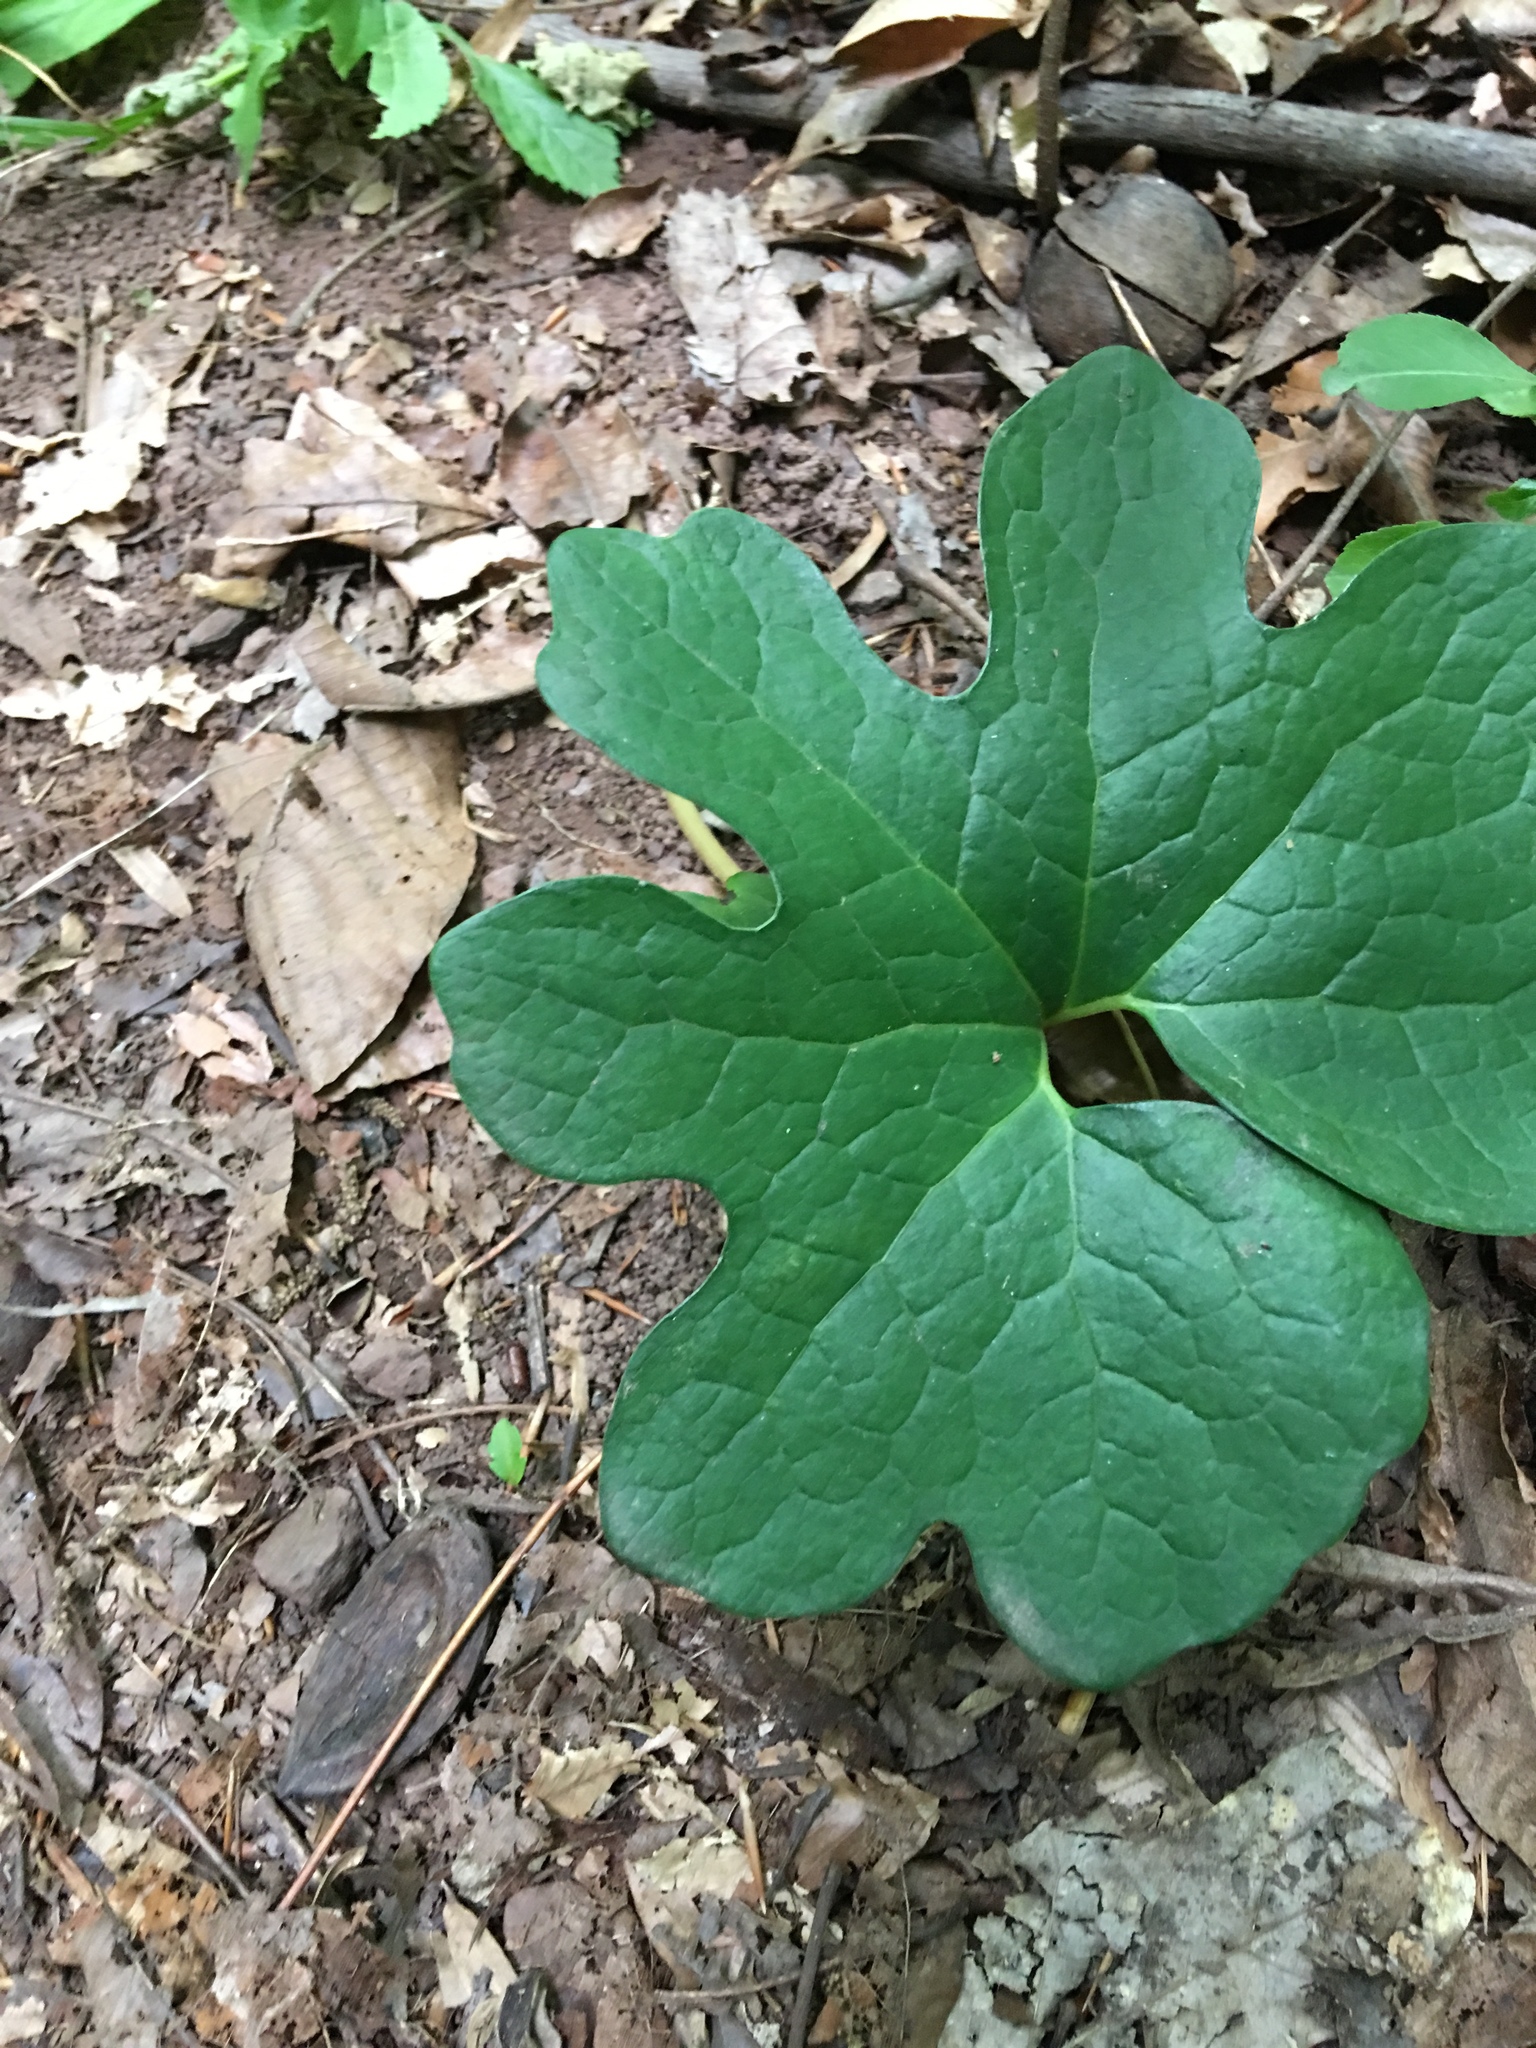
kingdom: Plantae
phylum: Tracheophyta
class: Magnoliopsida
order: Ranunculales
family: Papaveraceae
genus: Sanguinaria
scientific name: Sanguinaria canadensis
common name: Bloodroot
